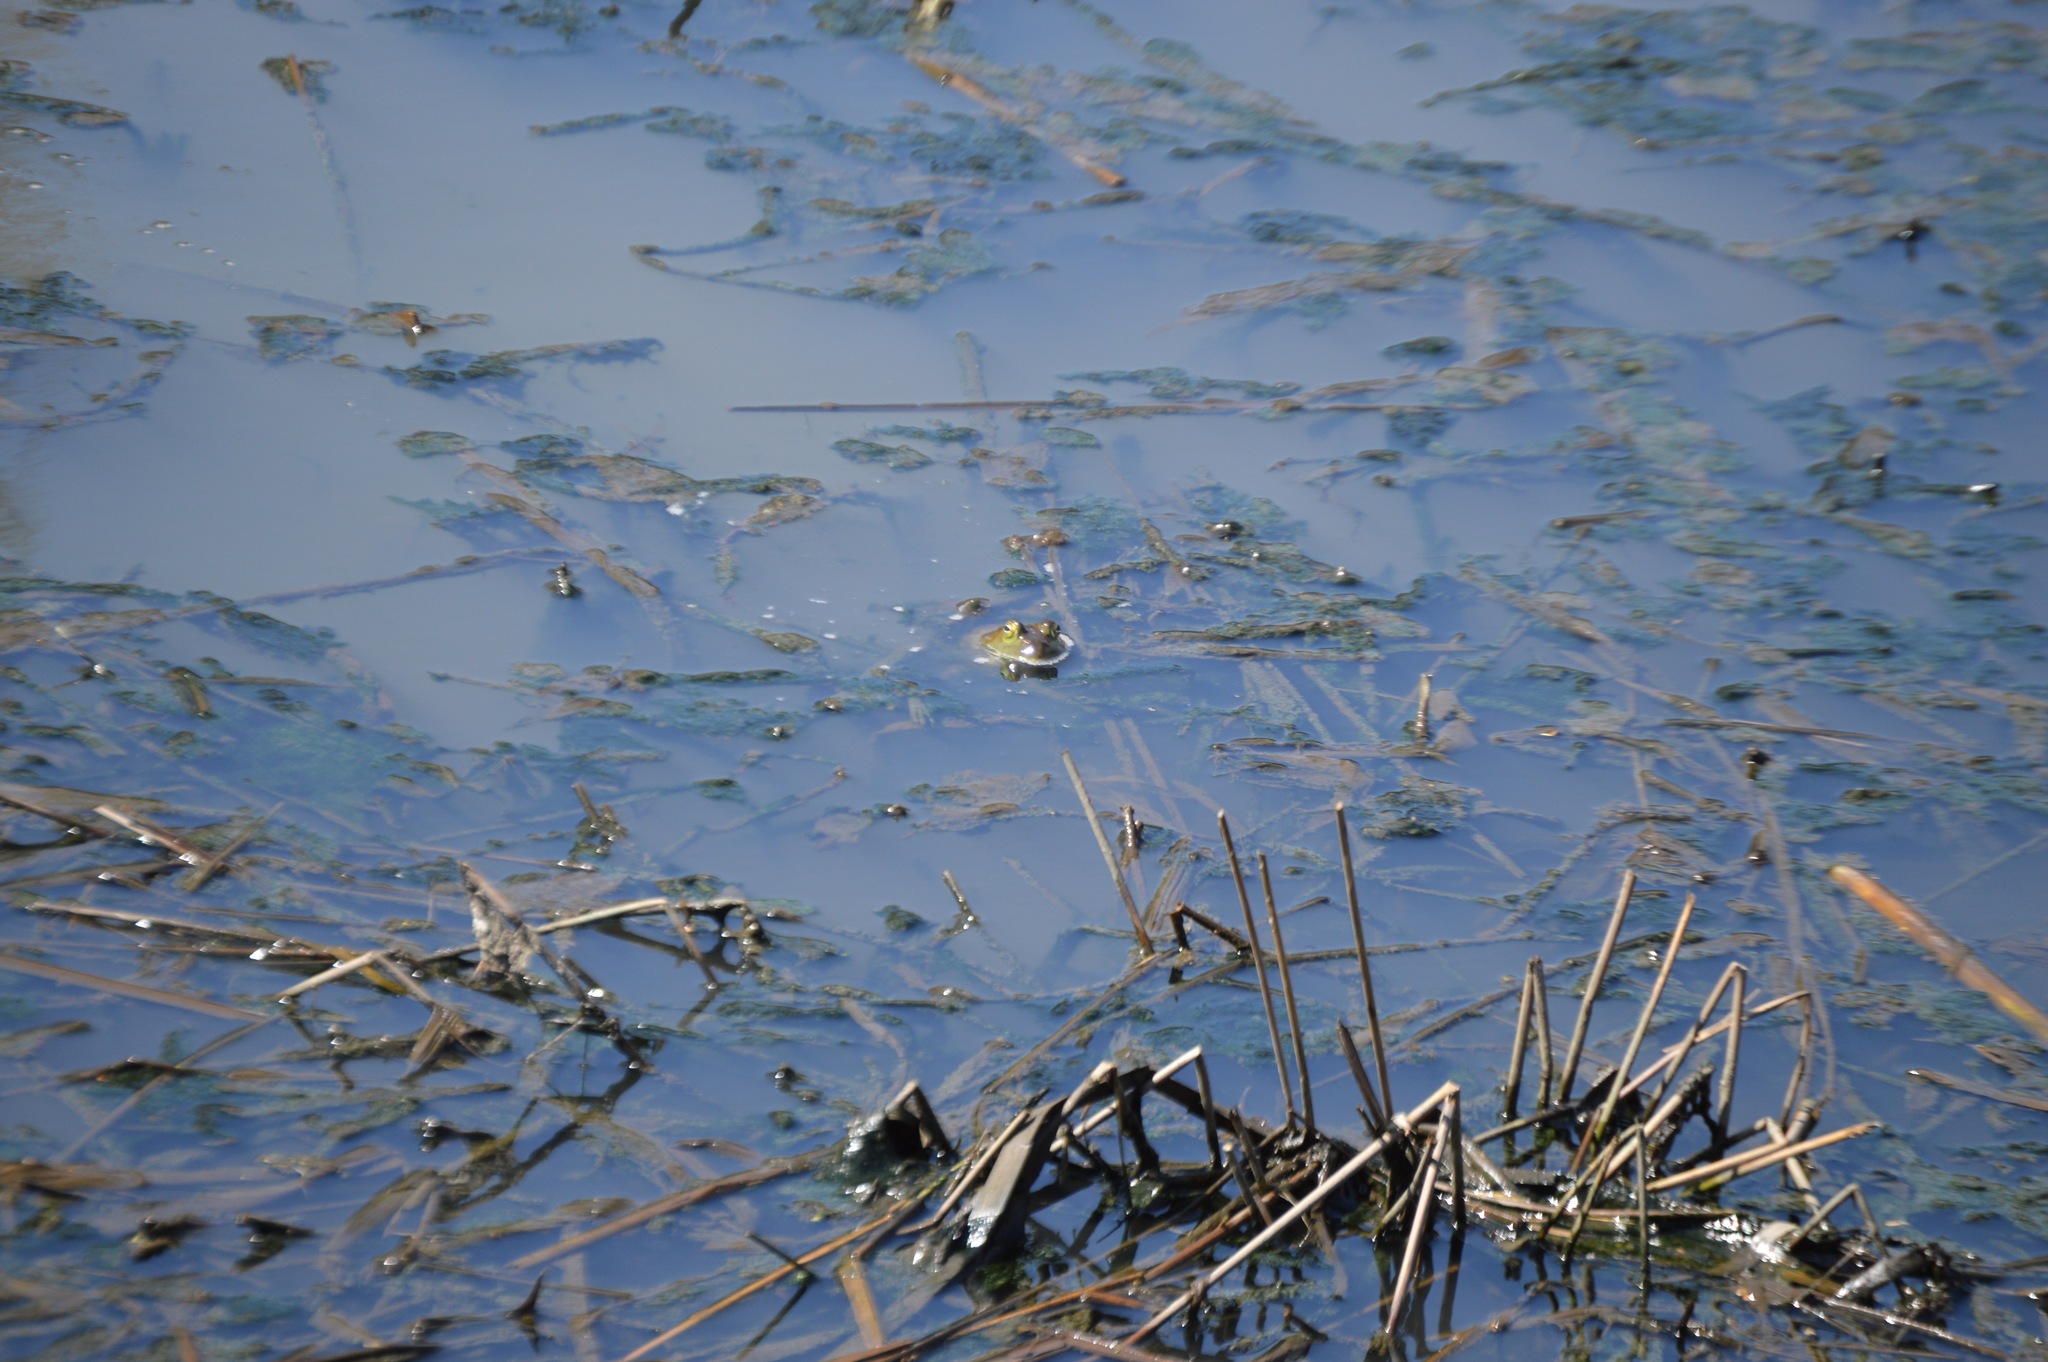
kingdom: Animalia
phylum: Chordata
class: Amphibia
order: Anura
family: Ranidae
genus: Lithobates
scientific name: Lithobates
